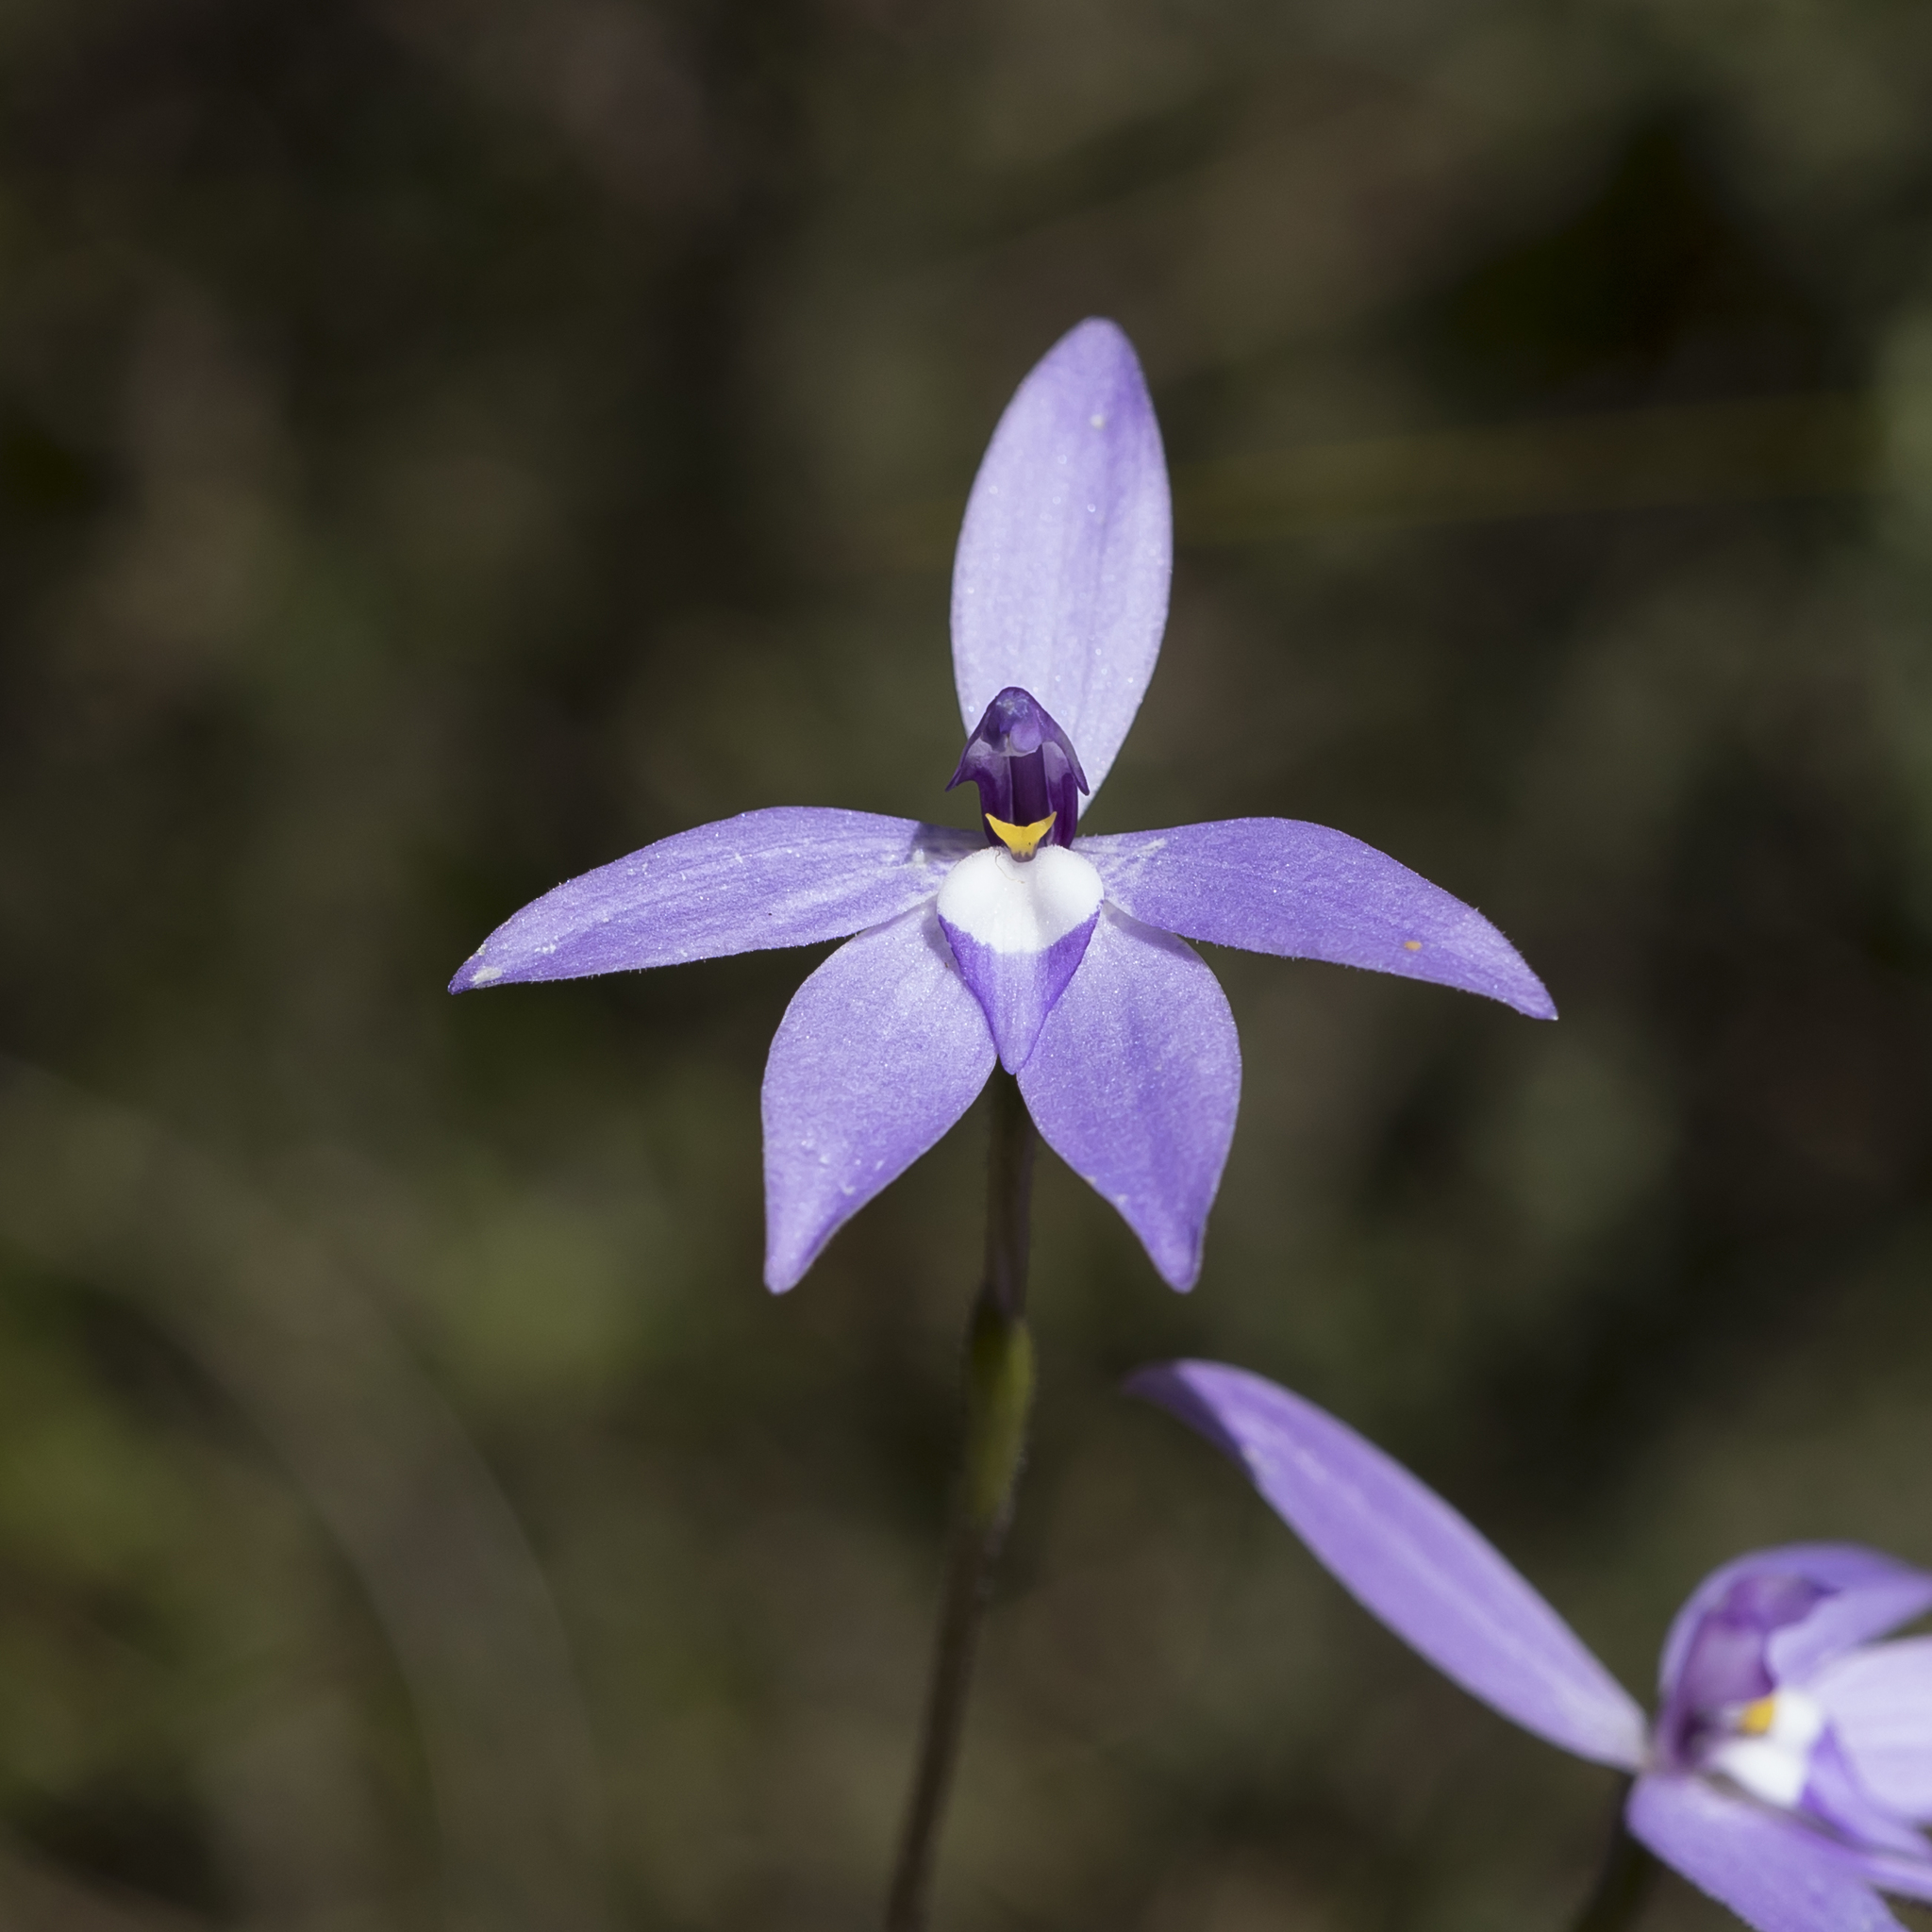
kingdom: Plantae
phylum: Tracheophyta
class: Liliopsida
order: Asparagales
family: Orchidaceae
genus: Caladenia
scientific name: Caladenia major
